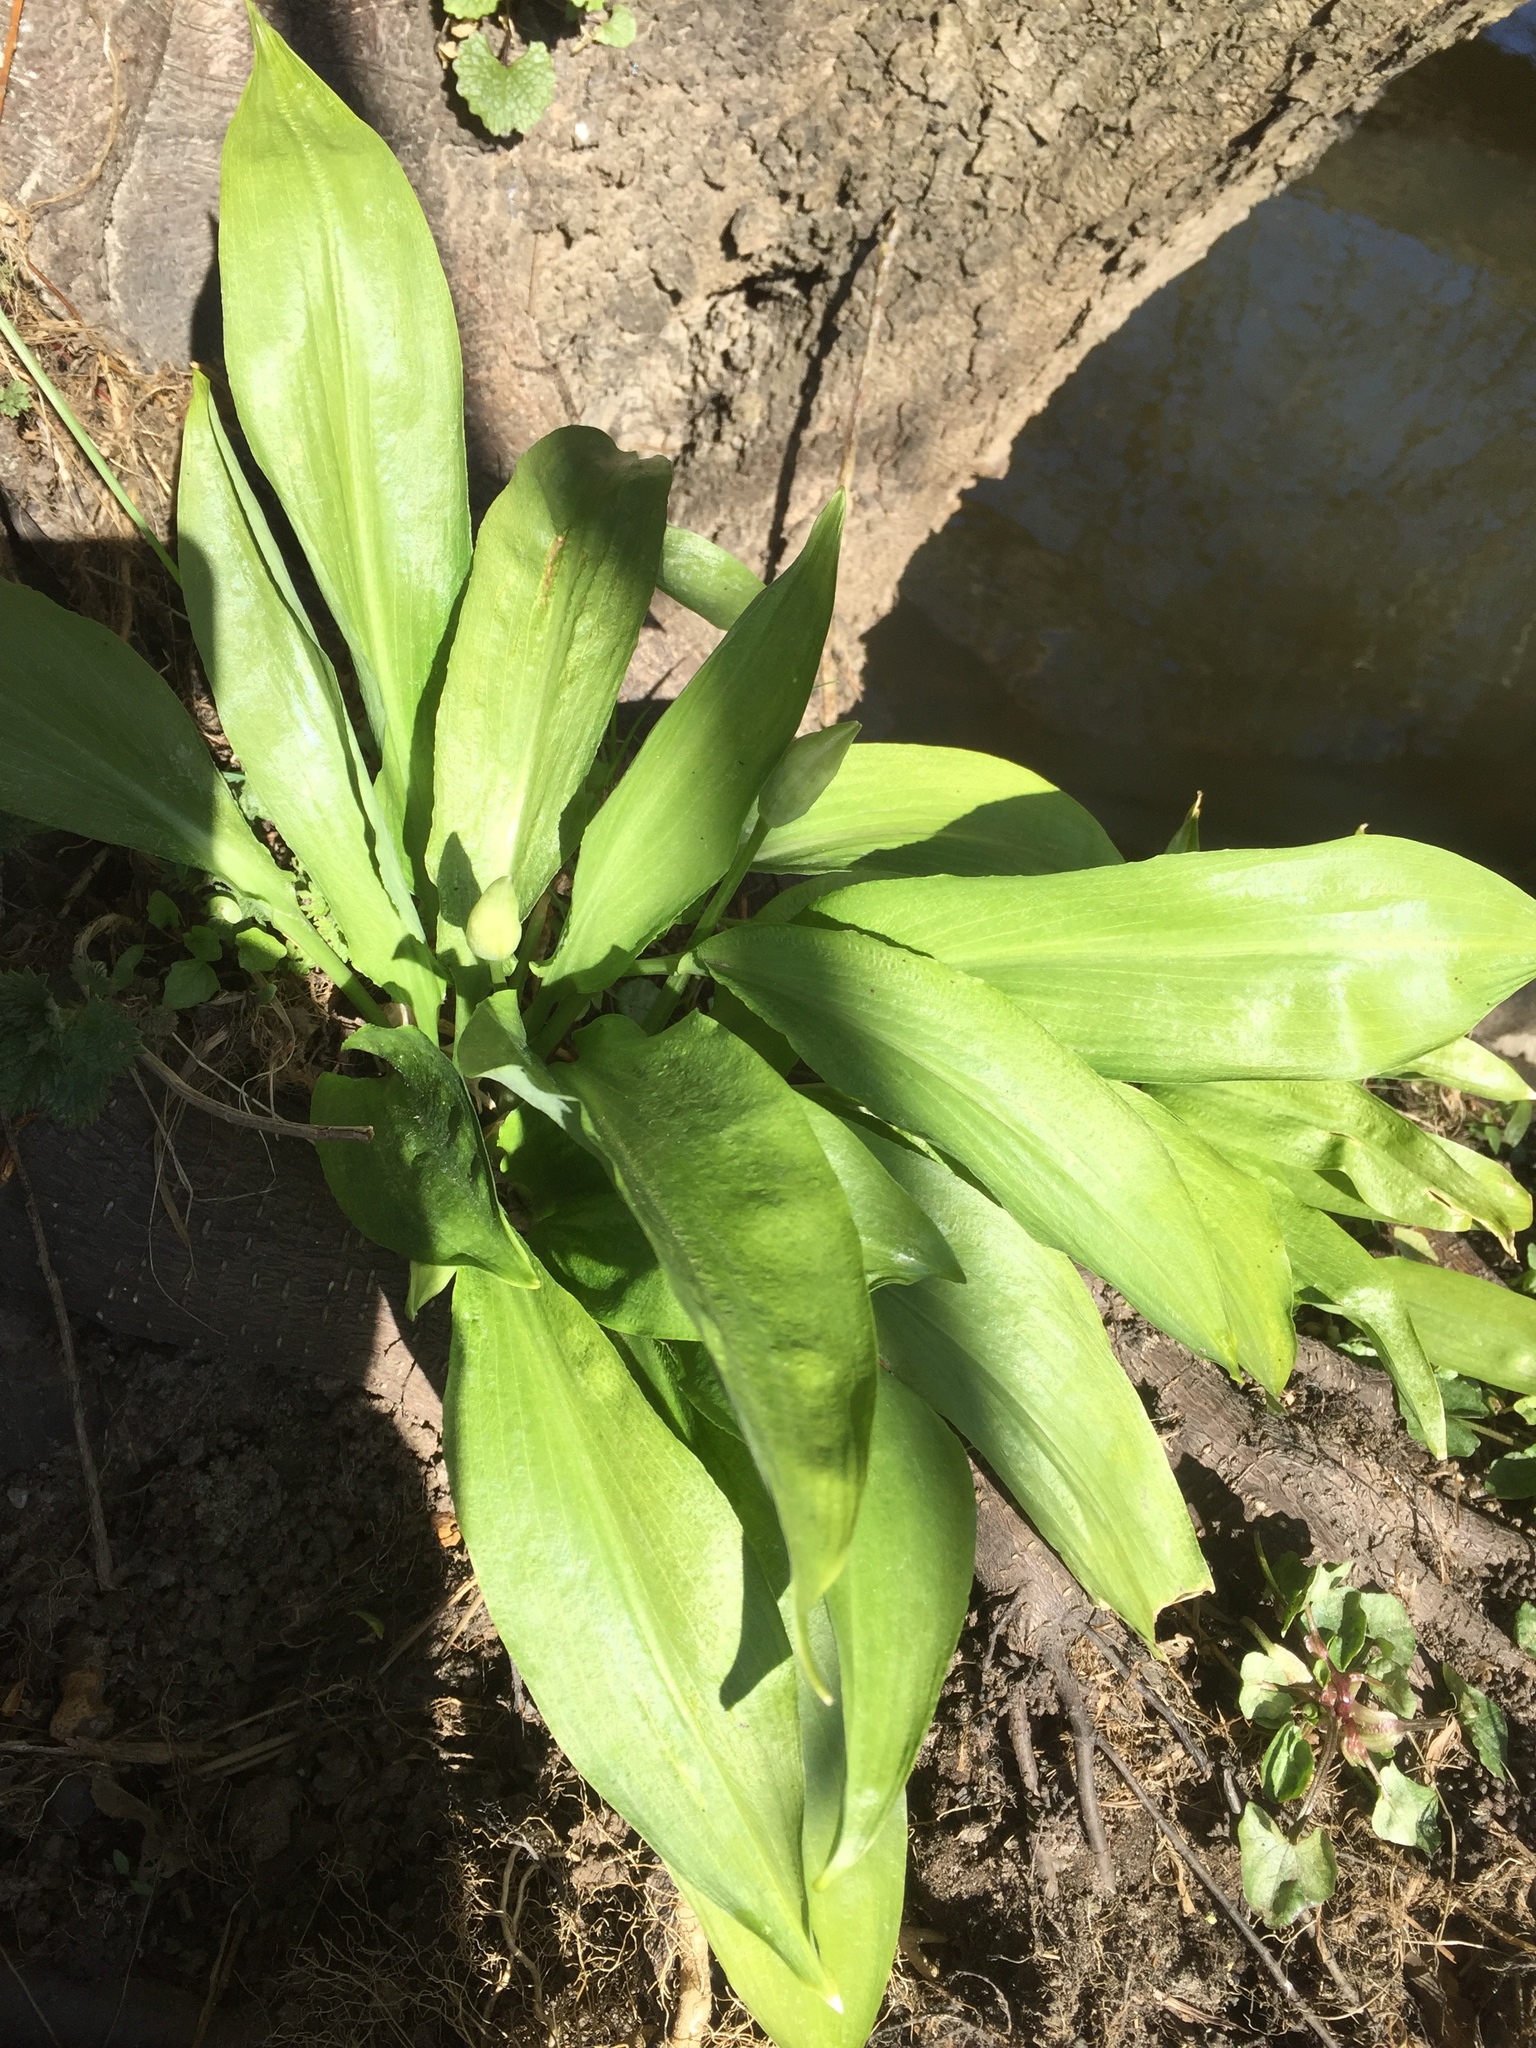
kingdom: Plantae
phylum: Tracheophyta
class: Liliopsida
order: Asparagales
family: Amaryllidaceae
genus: Allium
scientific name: Allium ursinum
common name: Ramsons
